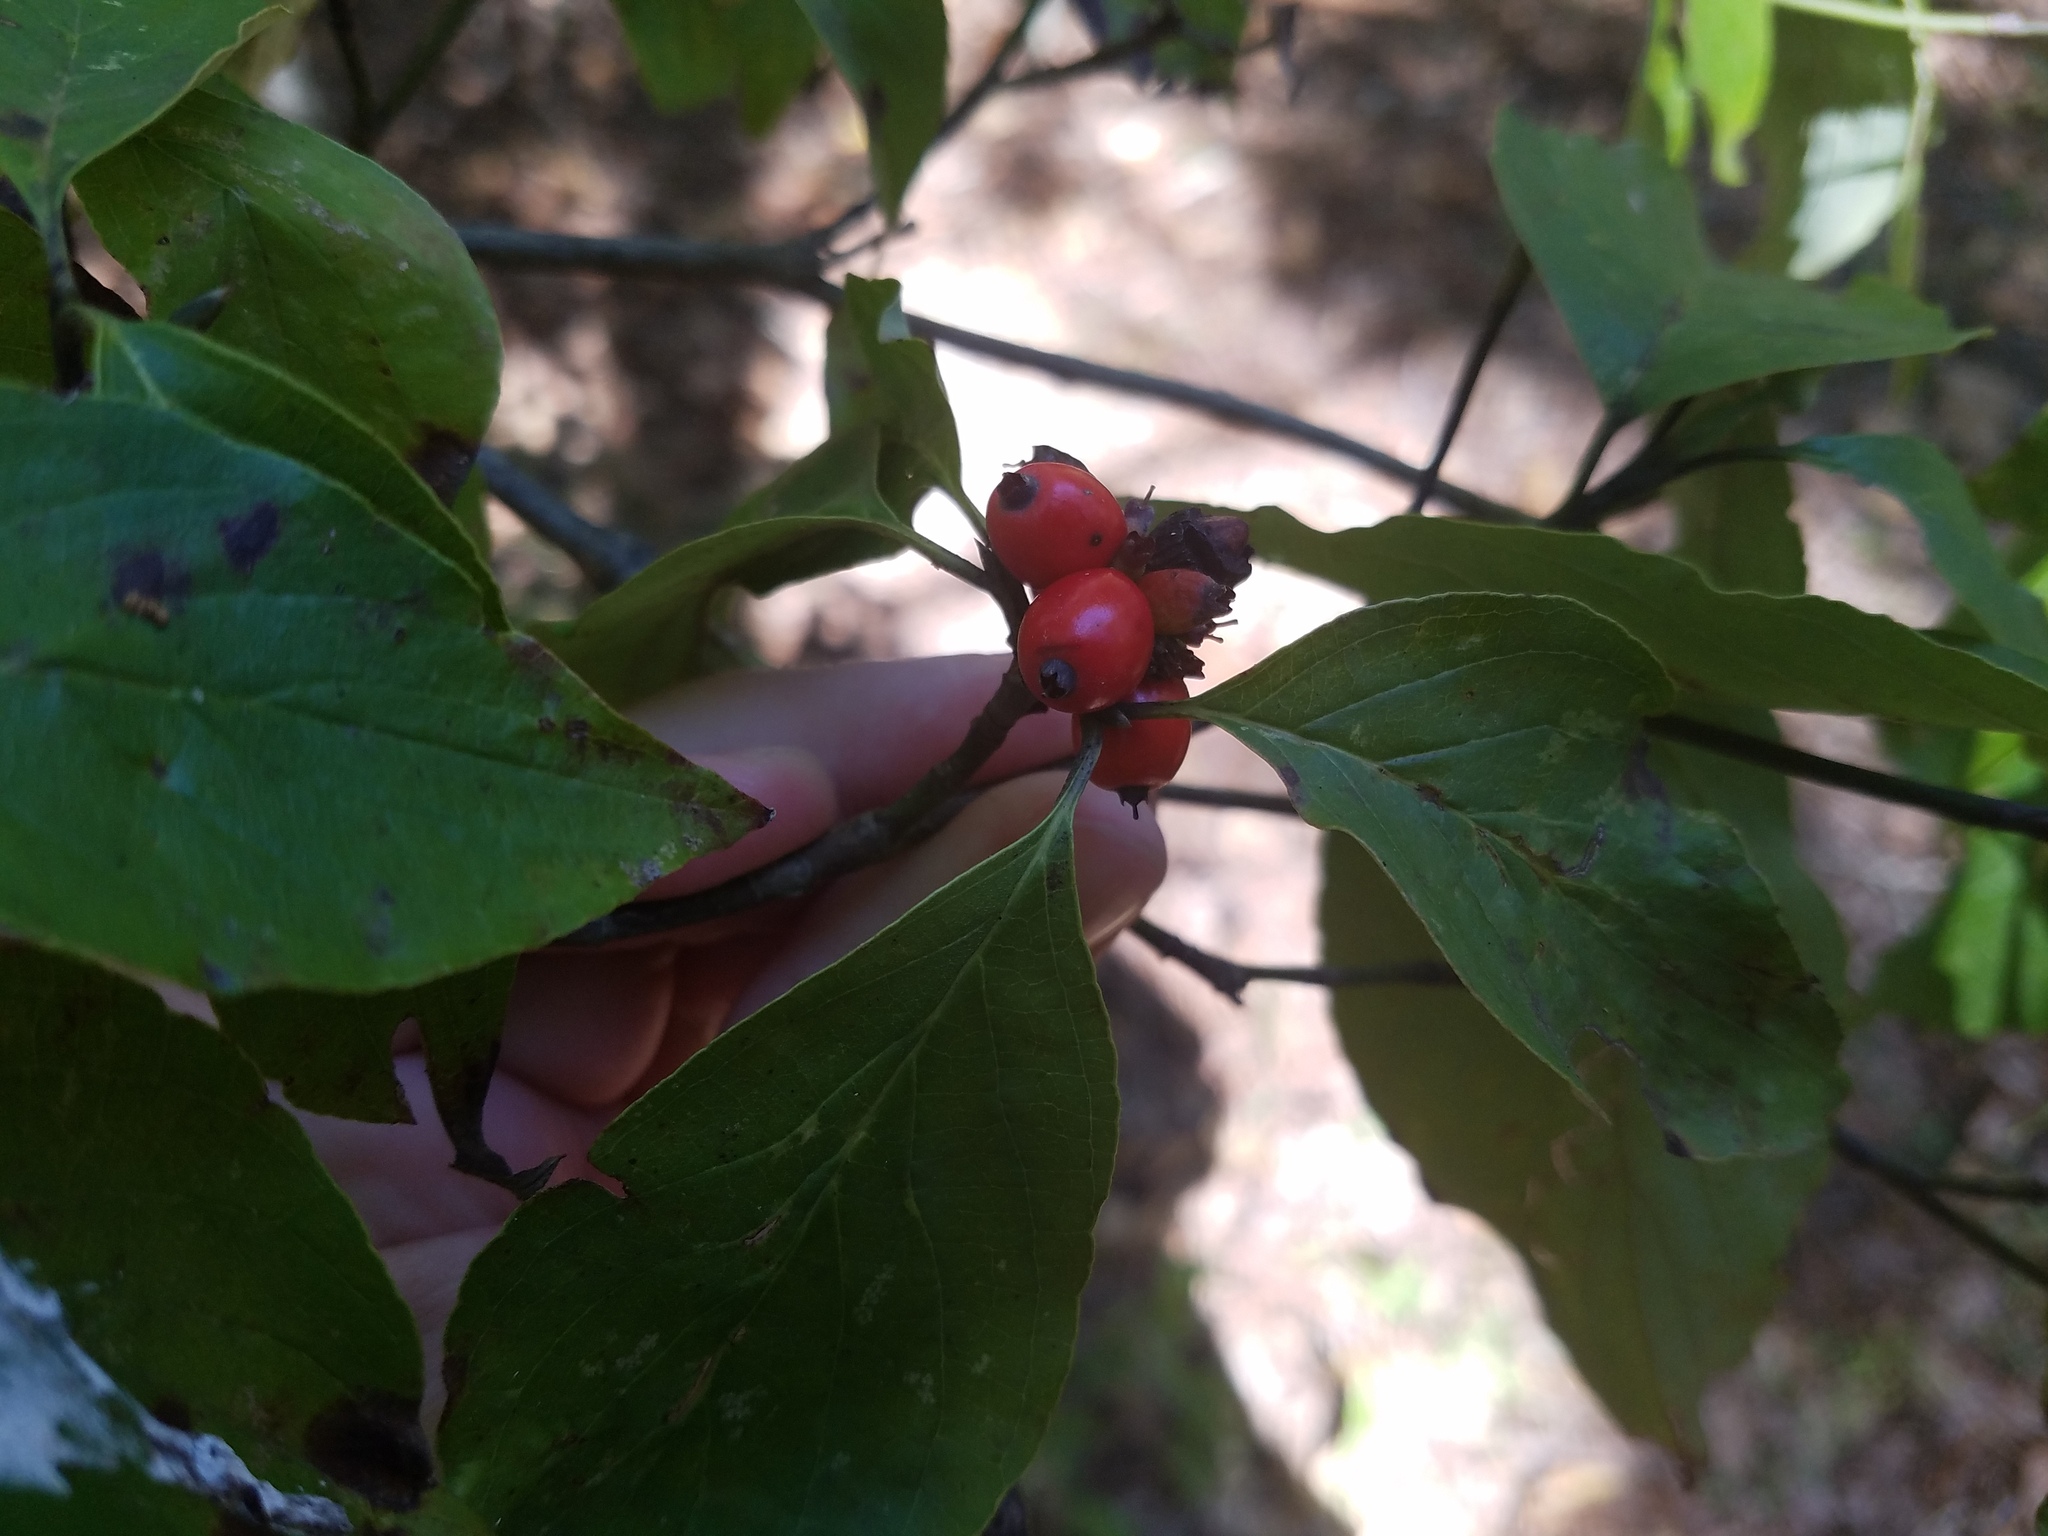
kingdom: Plantae
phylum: Tracheophyta
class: Magnoliopsida
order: Cornales
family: Cornaceae
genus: Cornus
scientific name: Cornus florida
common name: Flowering dogwood
